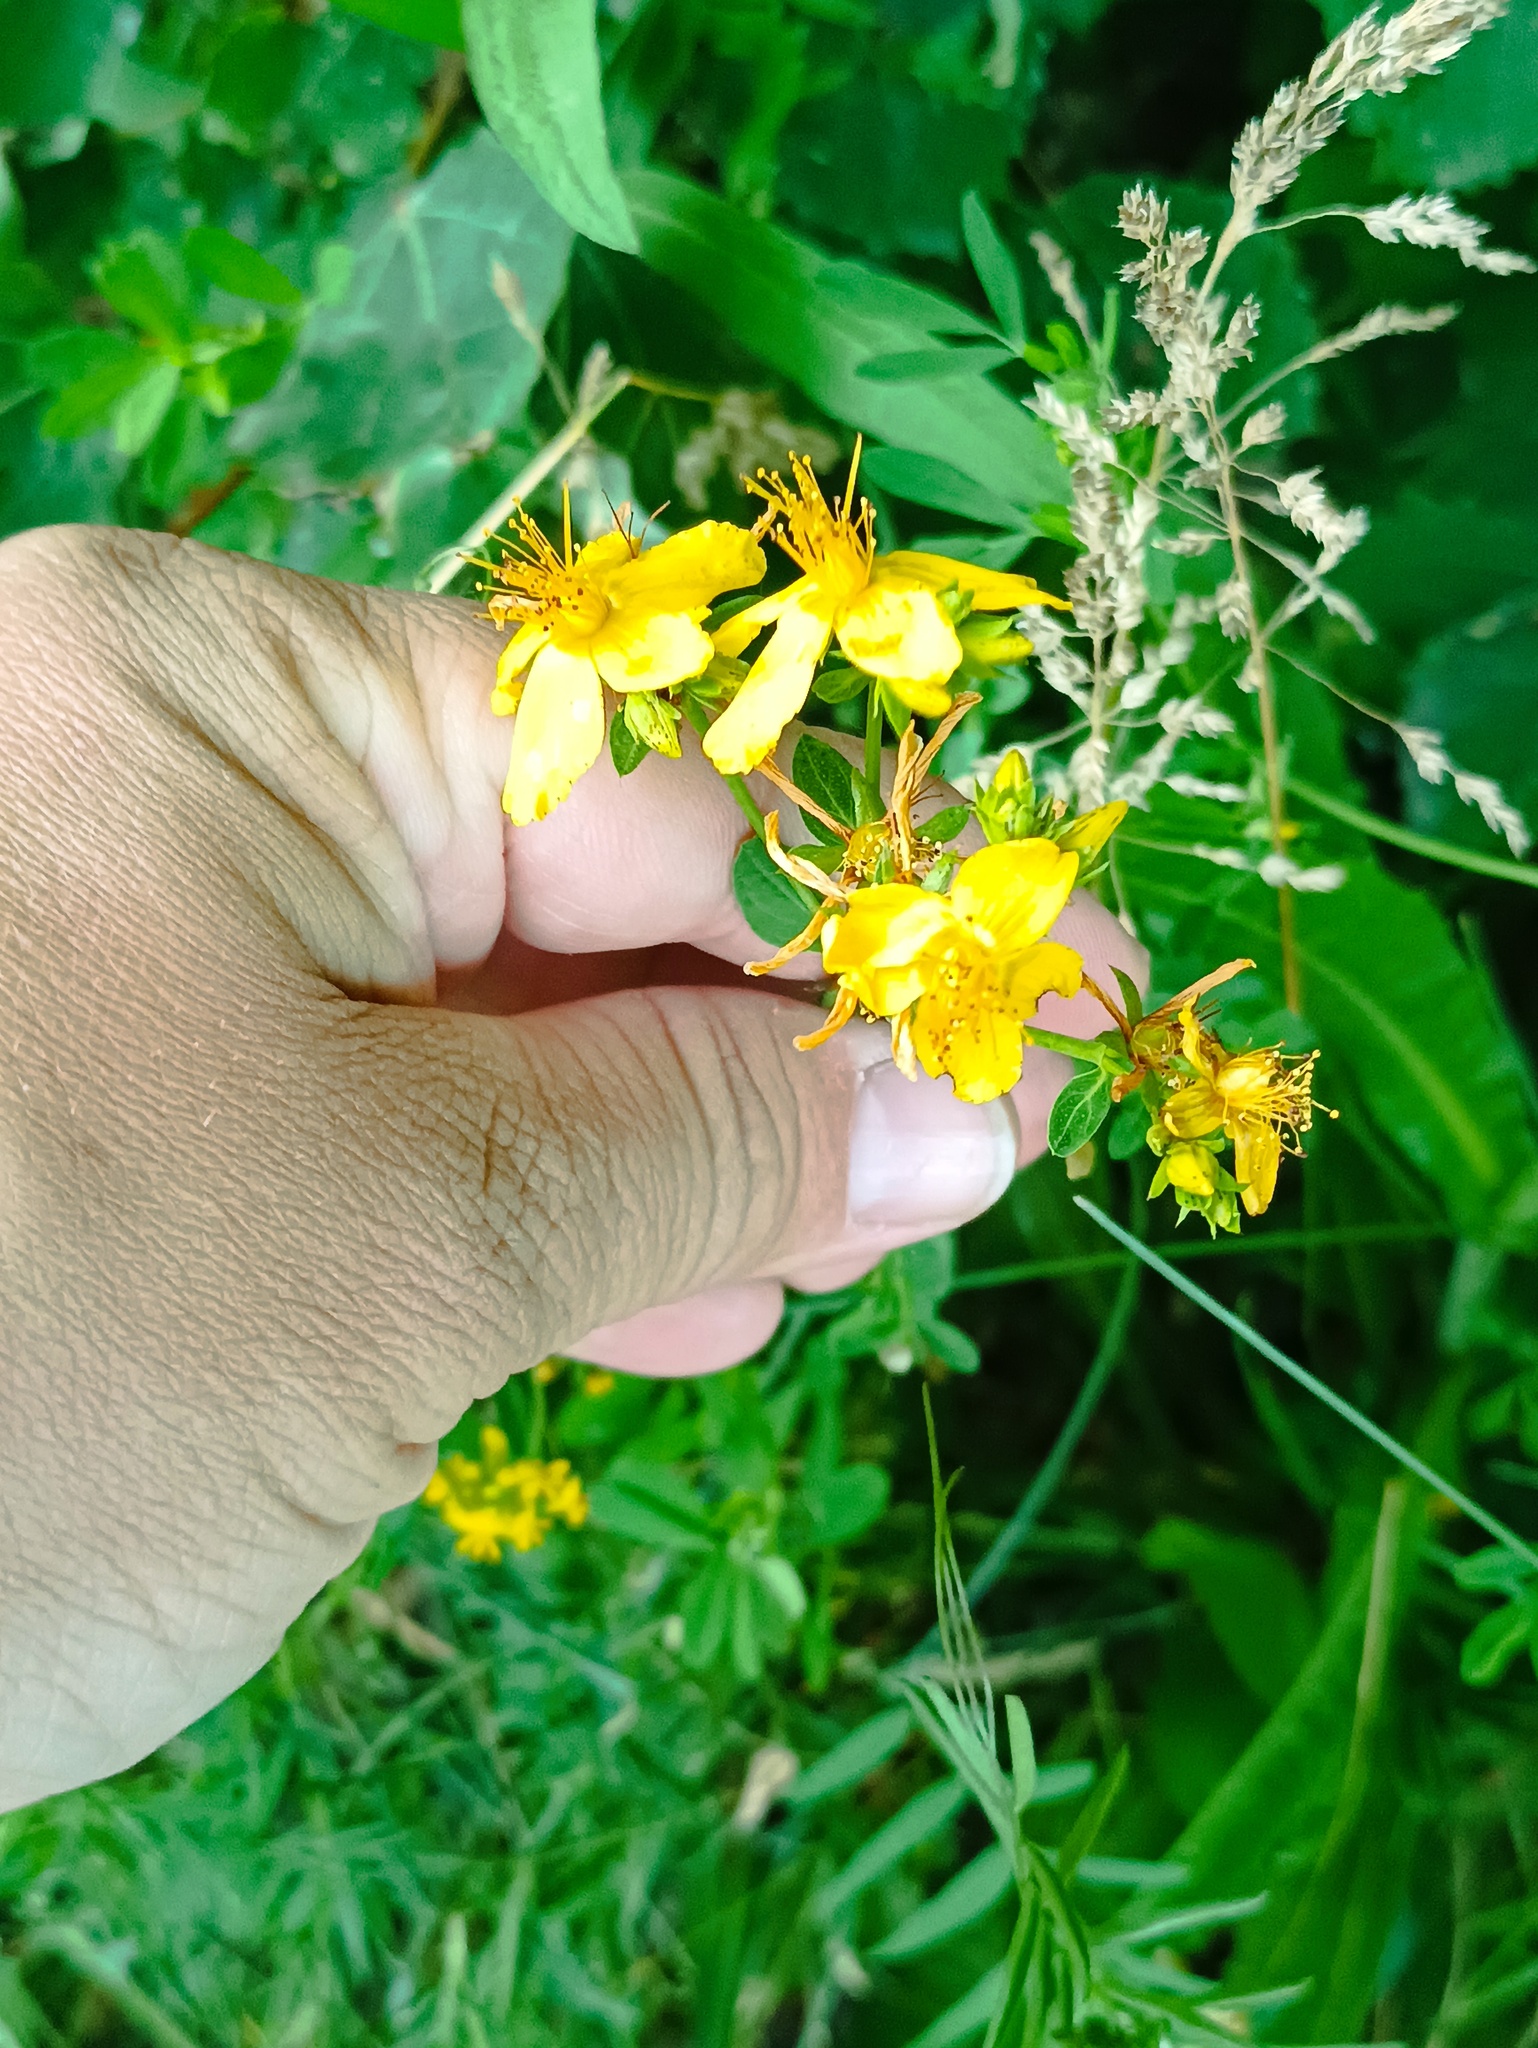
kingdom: Plantae
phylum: Tracheophyta
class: Magnoliopsida
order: Malpighiales
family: Hypericaceae
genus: Hypericum
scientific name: Hypericum perforatum
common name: Common st. johnswort
